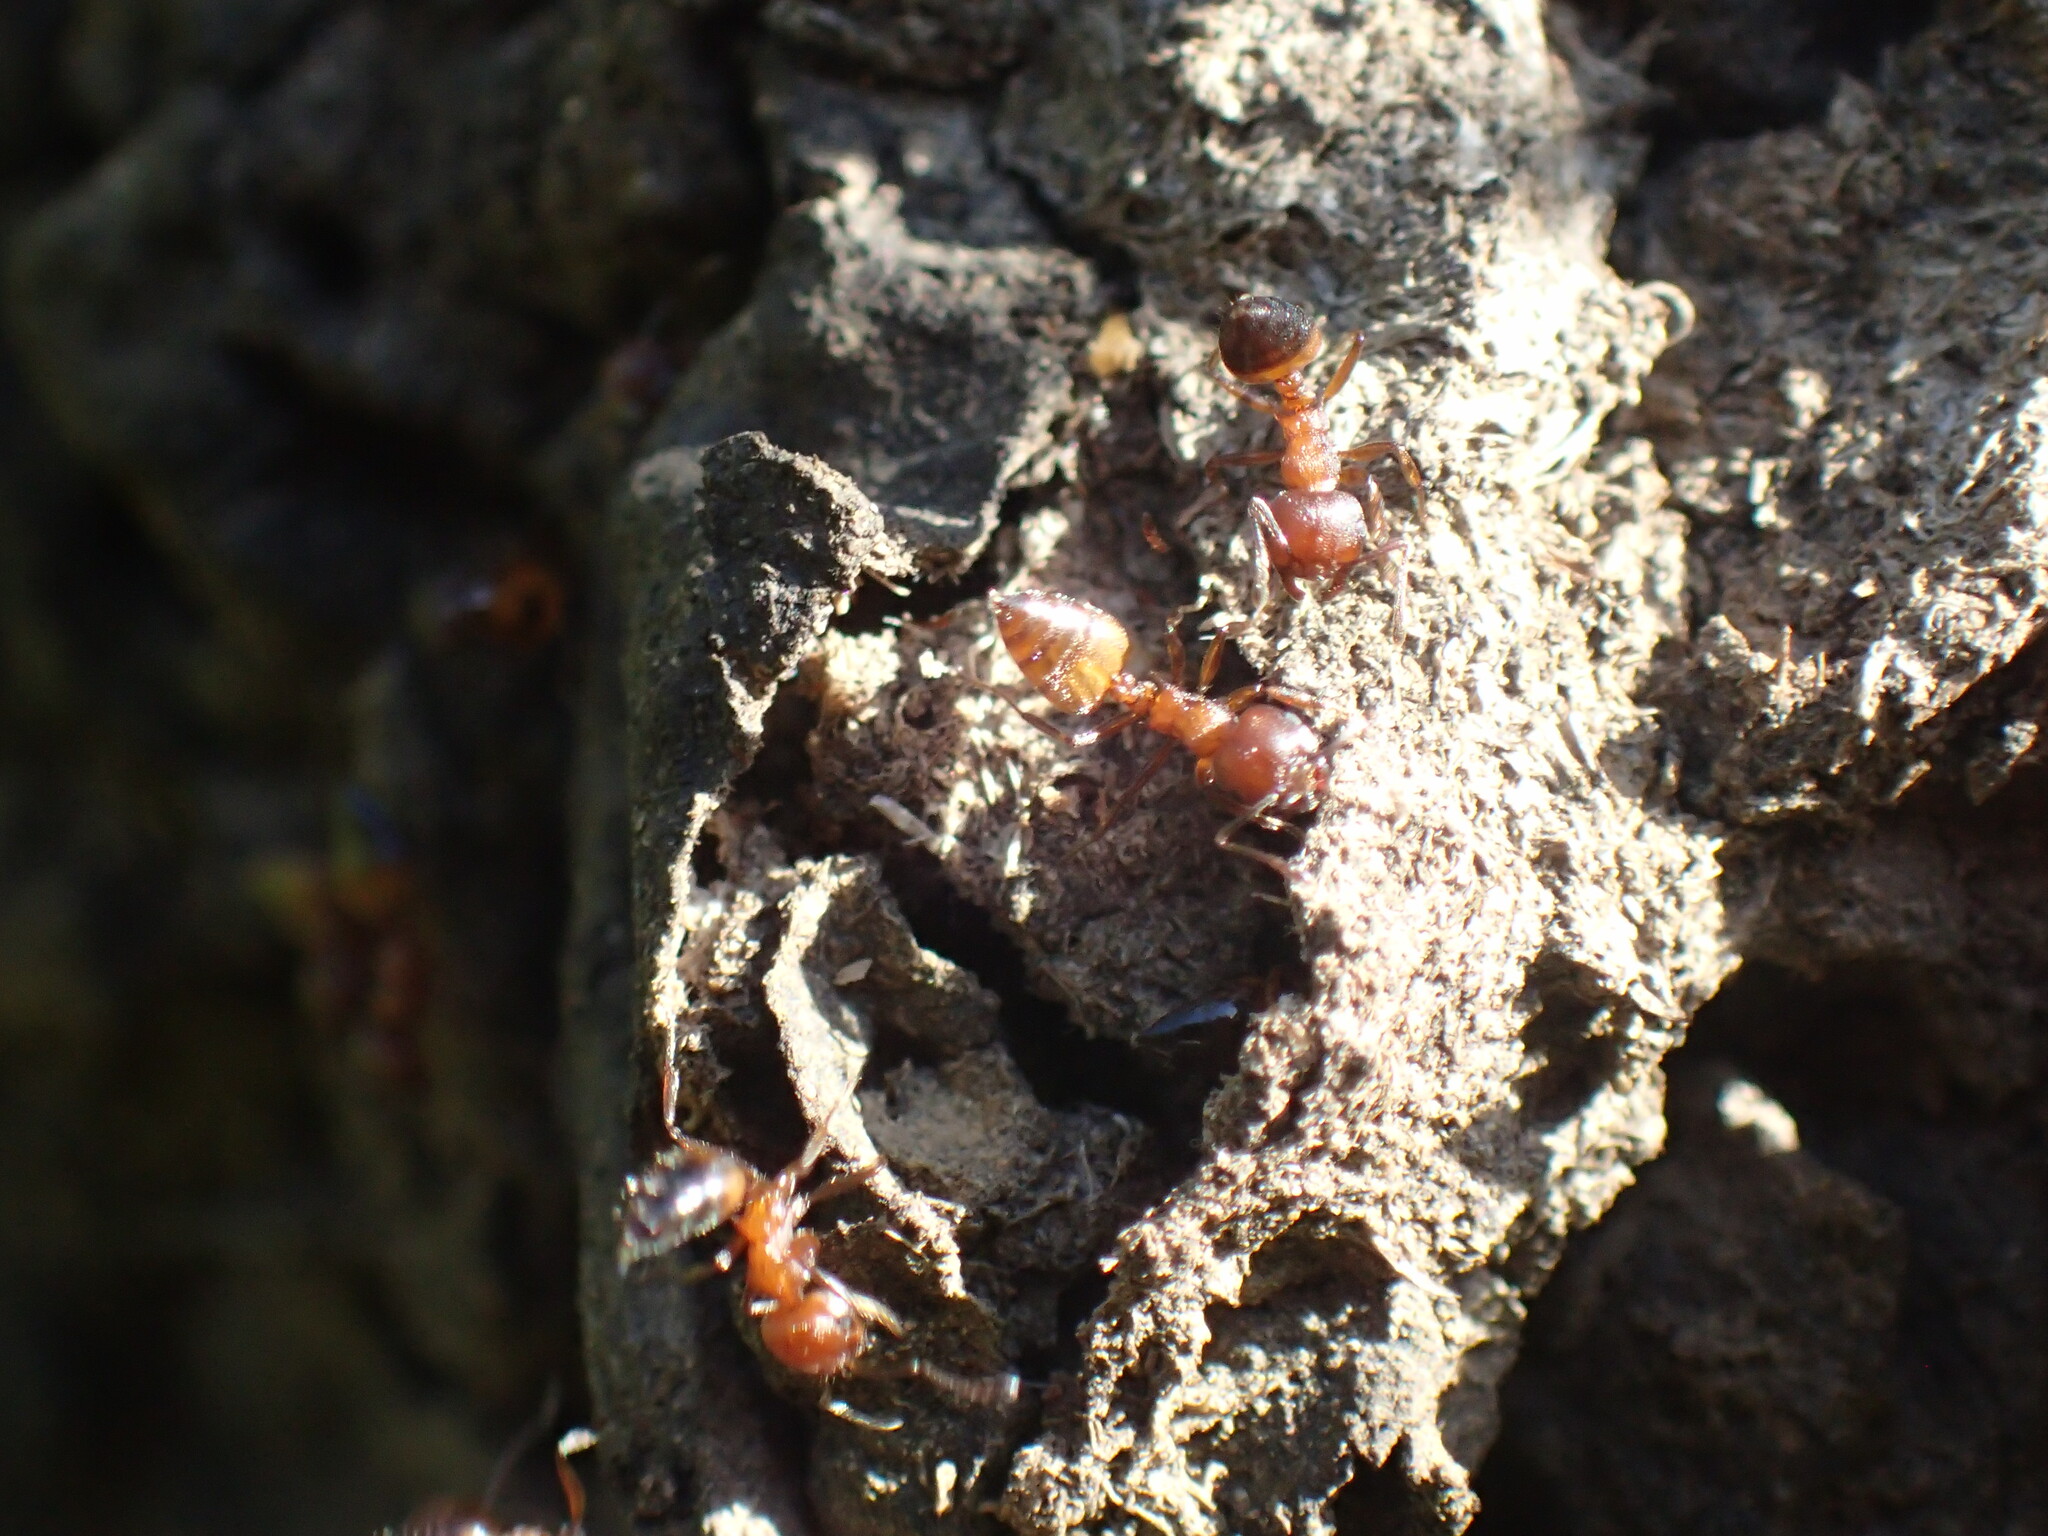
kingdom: Animalia
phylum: Arthropoda
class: Insecta
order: Hymenoptera
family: Formicidae
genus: Crematogaster
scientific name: Crematogaster castanea
